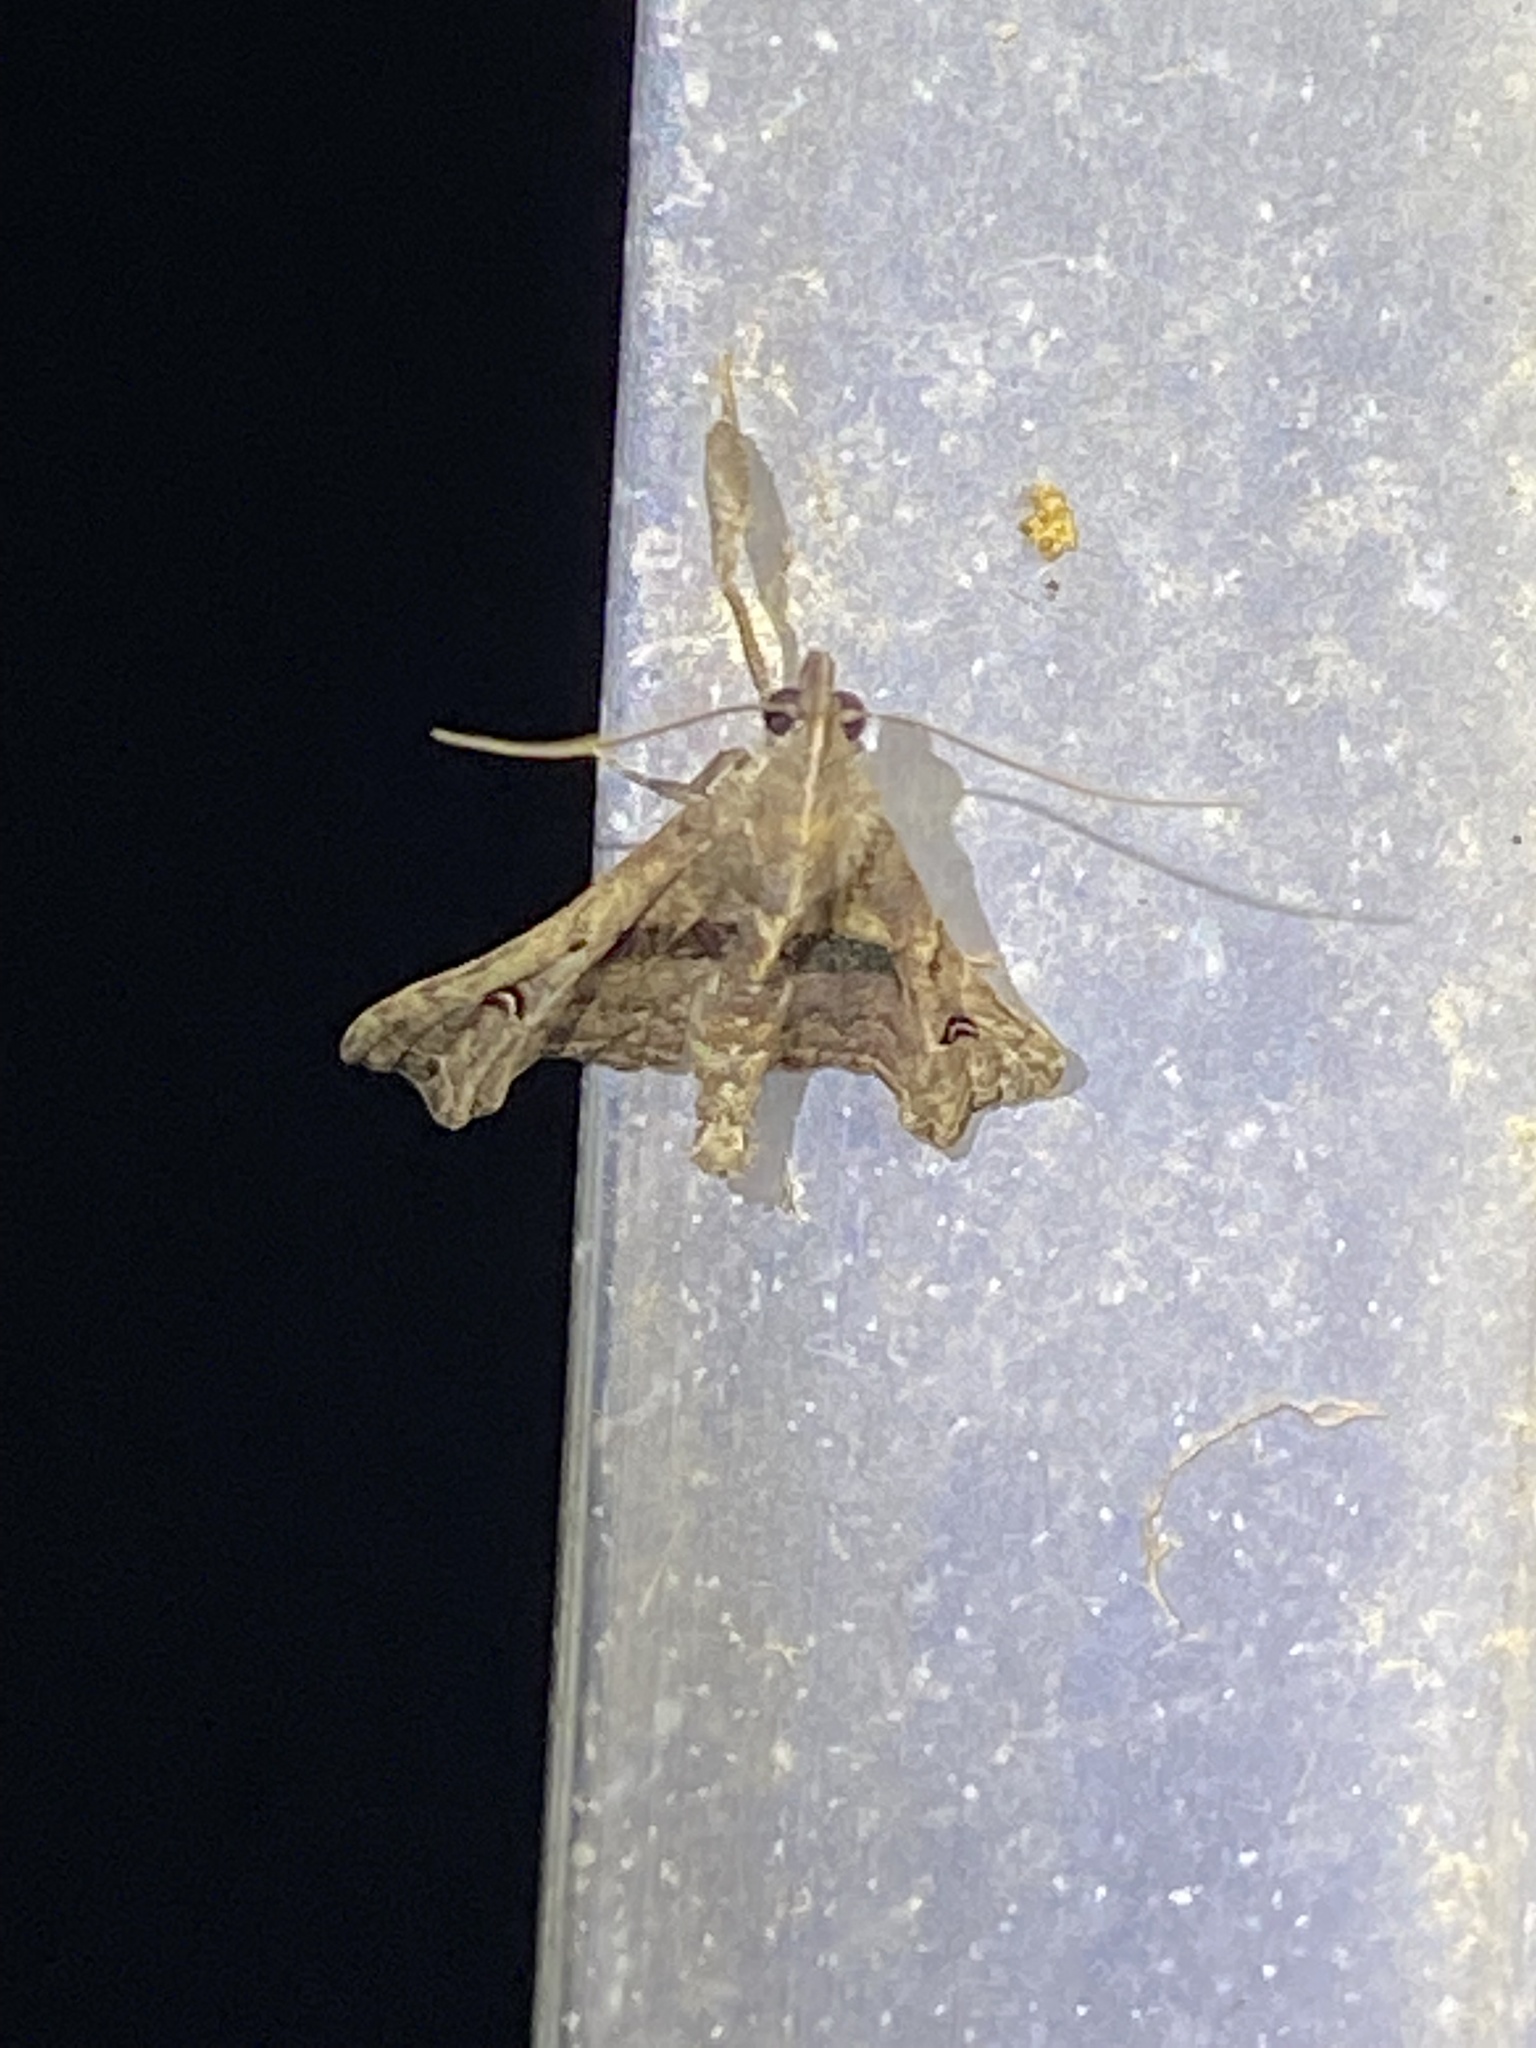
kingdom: Animalia
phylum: Arthropoda
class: Insecta
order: Lepidoptera
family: Erebidae
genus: Palthis
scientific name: Palthis asopialis
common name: Faint-spotted palthis moth
